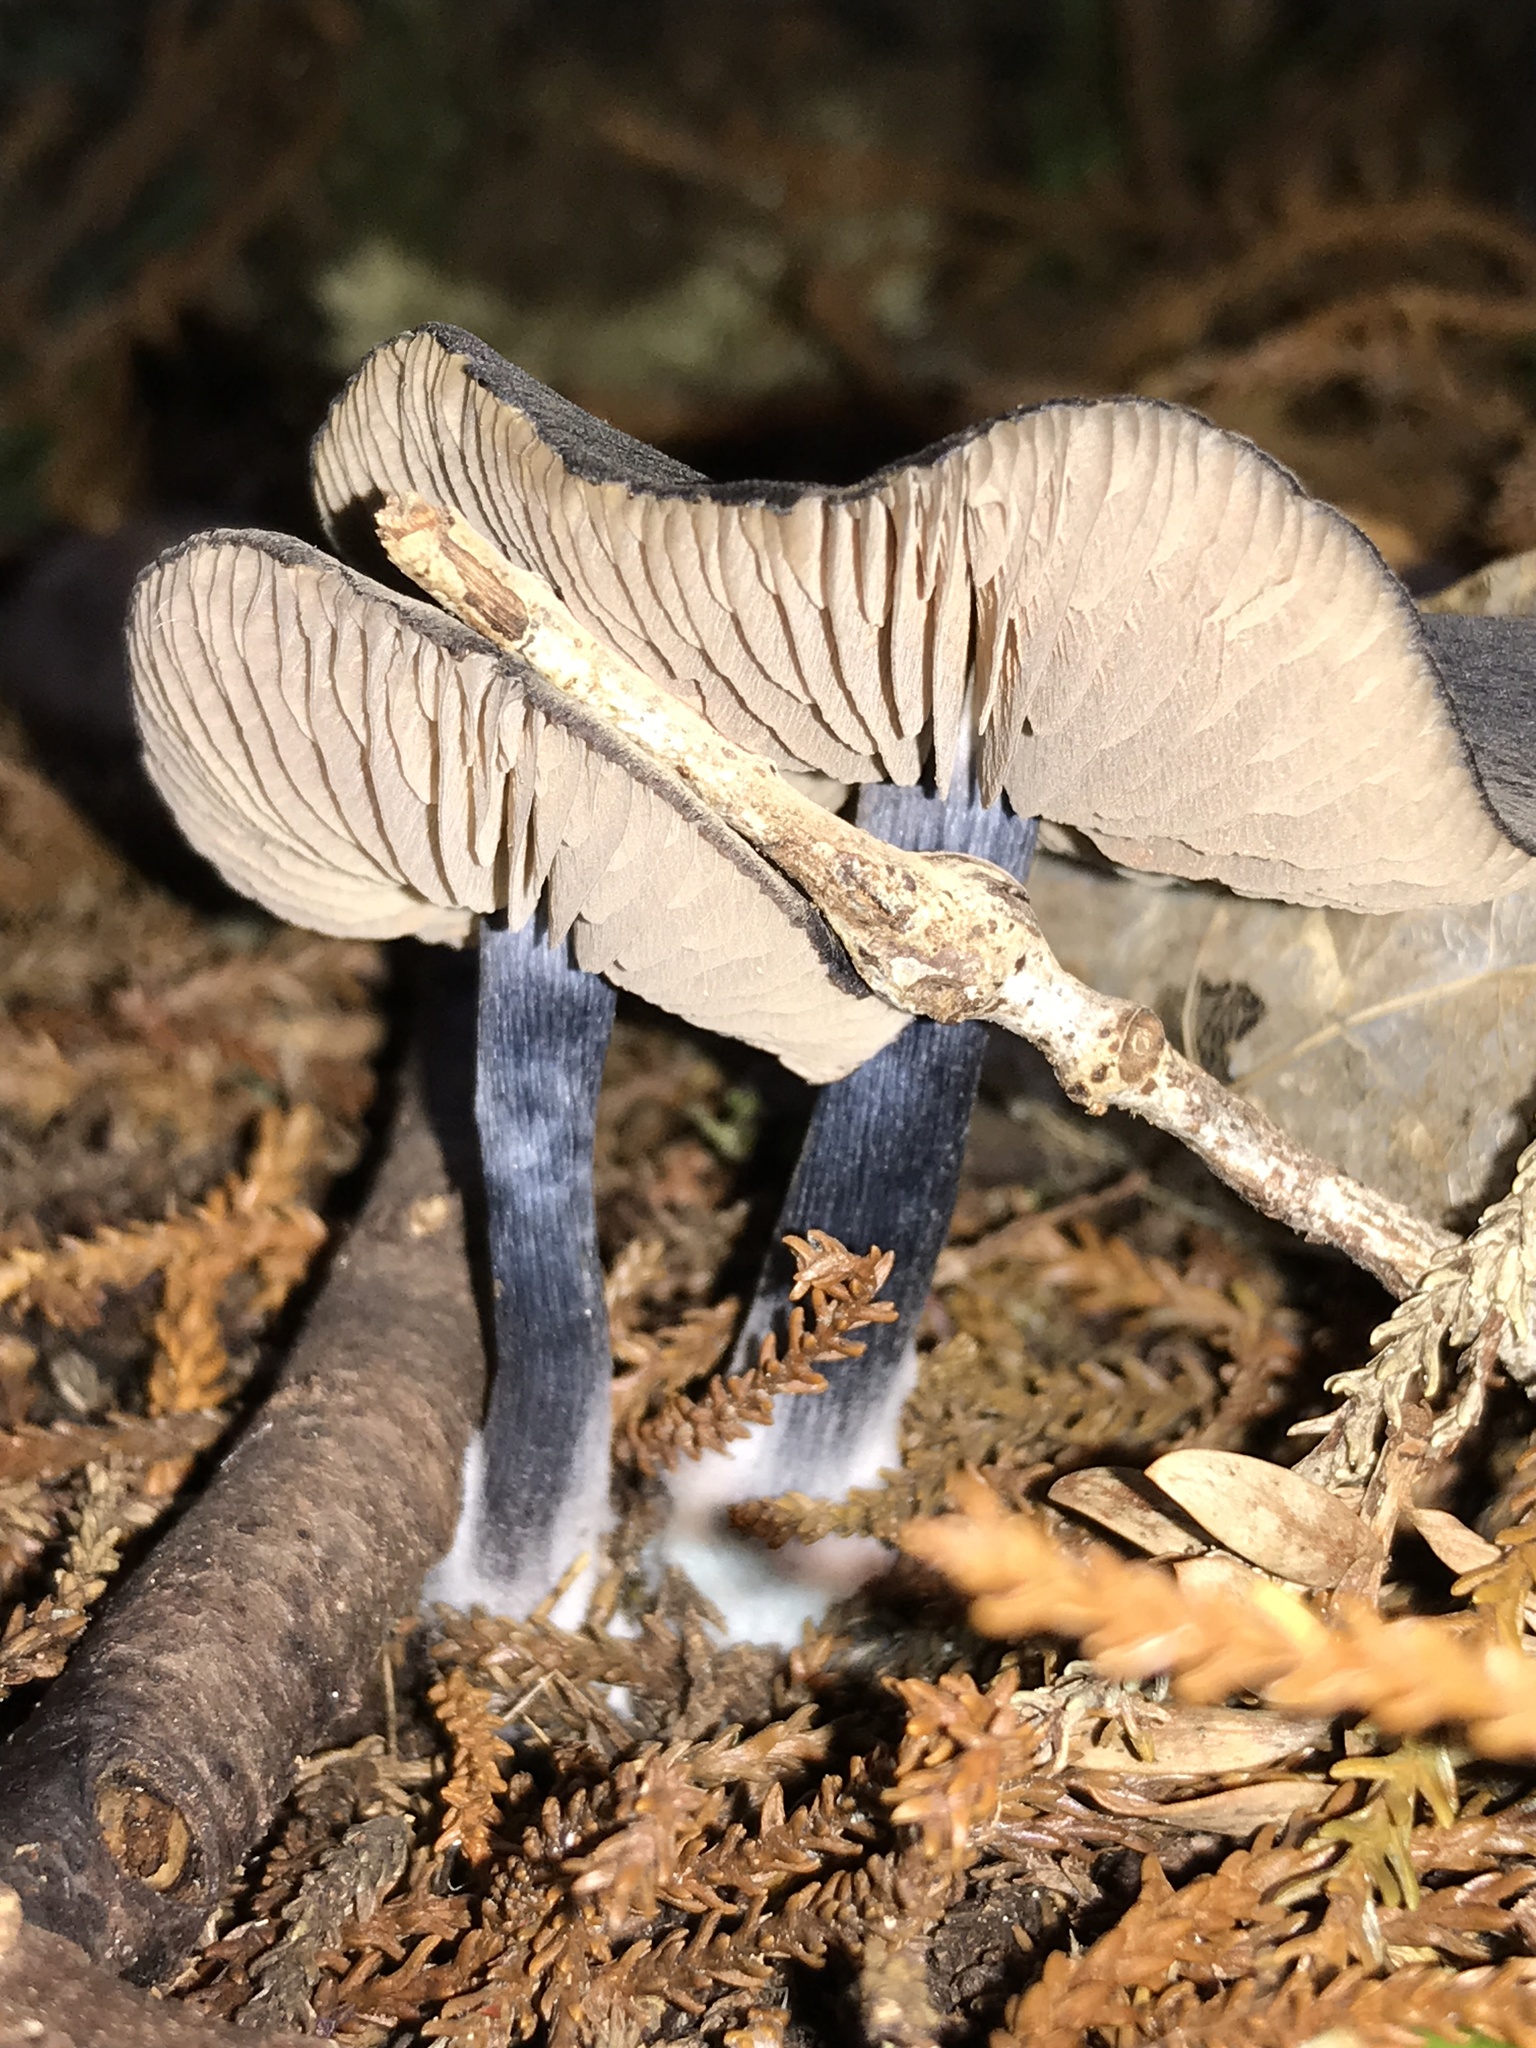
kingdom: Fungi
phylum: Basidiomycota
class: Agaricomycetes
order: Agaricales
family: Entolomataceae
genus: Entocybe
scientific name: Entocybe haastii
